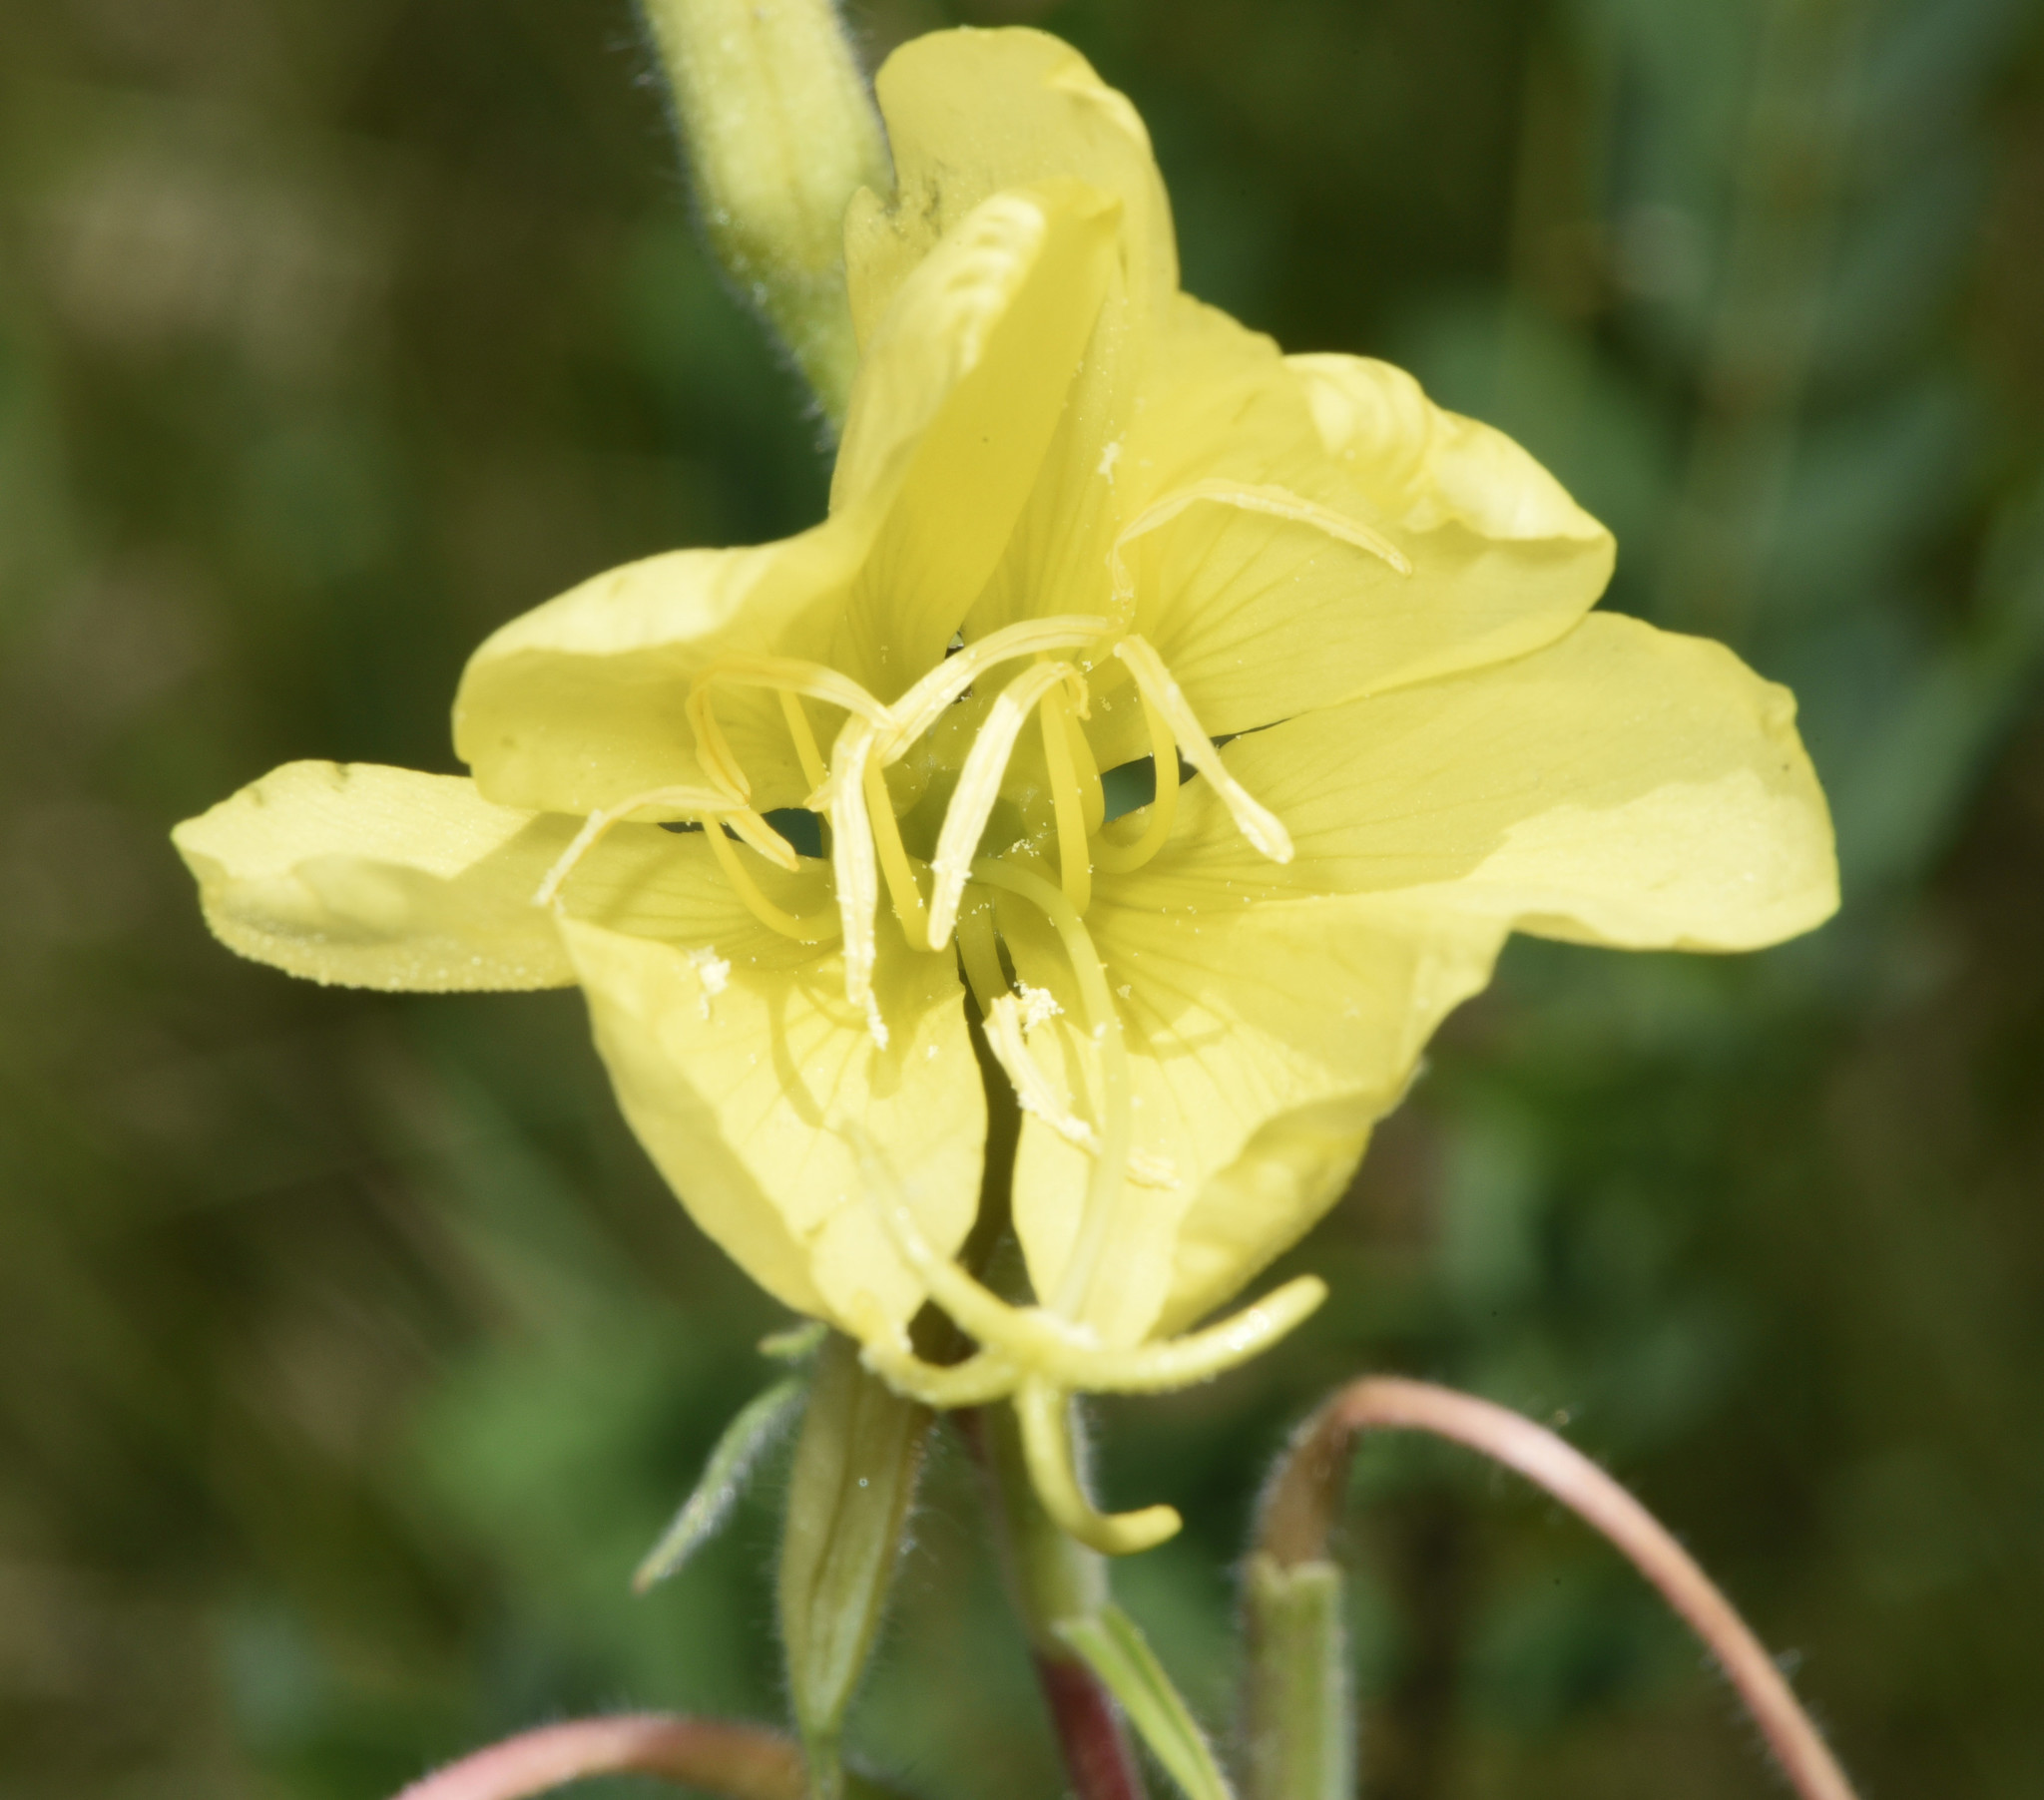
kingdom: Plantae
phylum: Tracheophyta
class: Magnoliopsida
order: Myrtales
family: Onagraceae
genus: Oenothera
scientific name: Oenothera elata
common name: Hooker's evening-primrose
